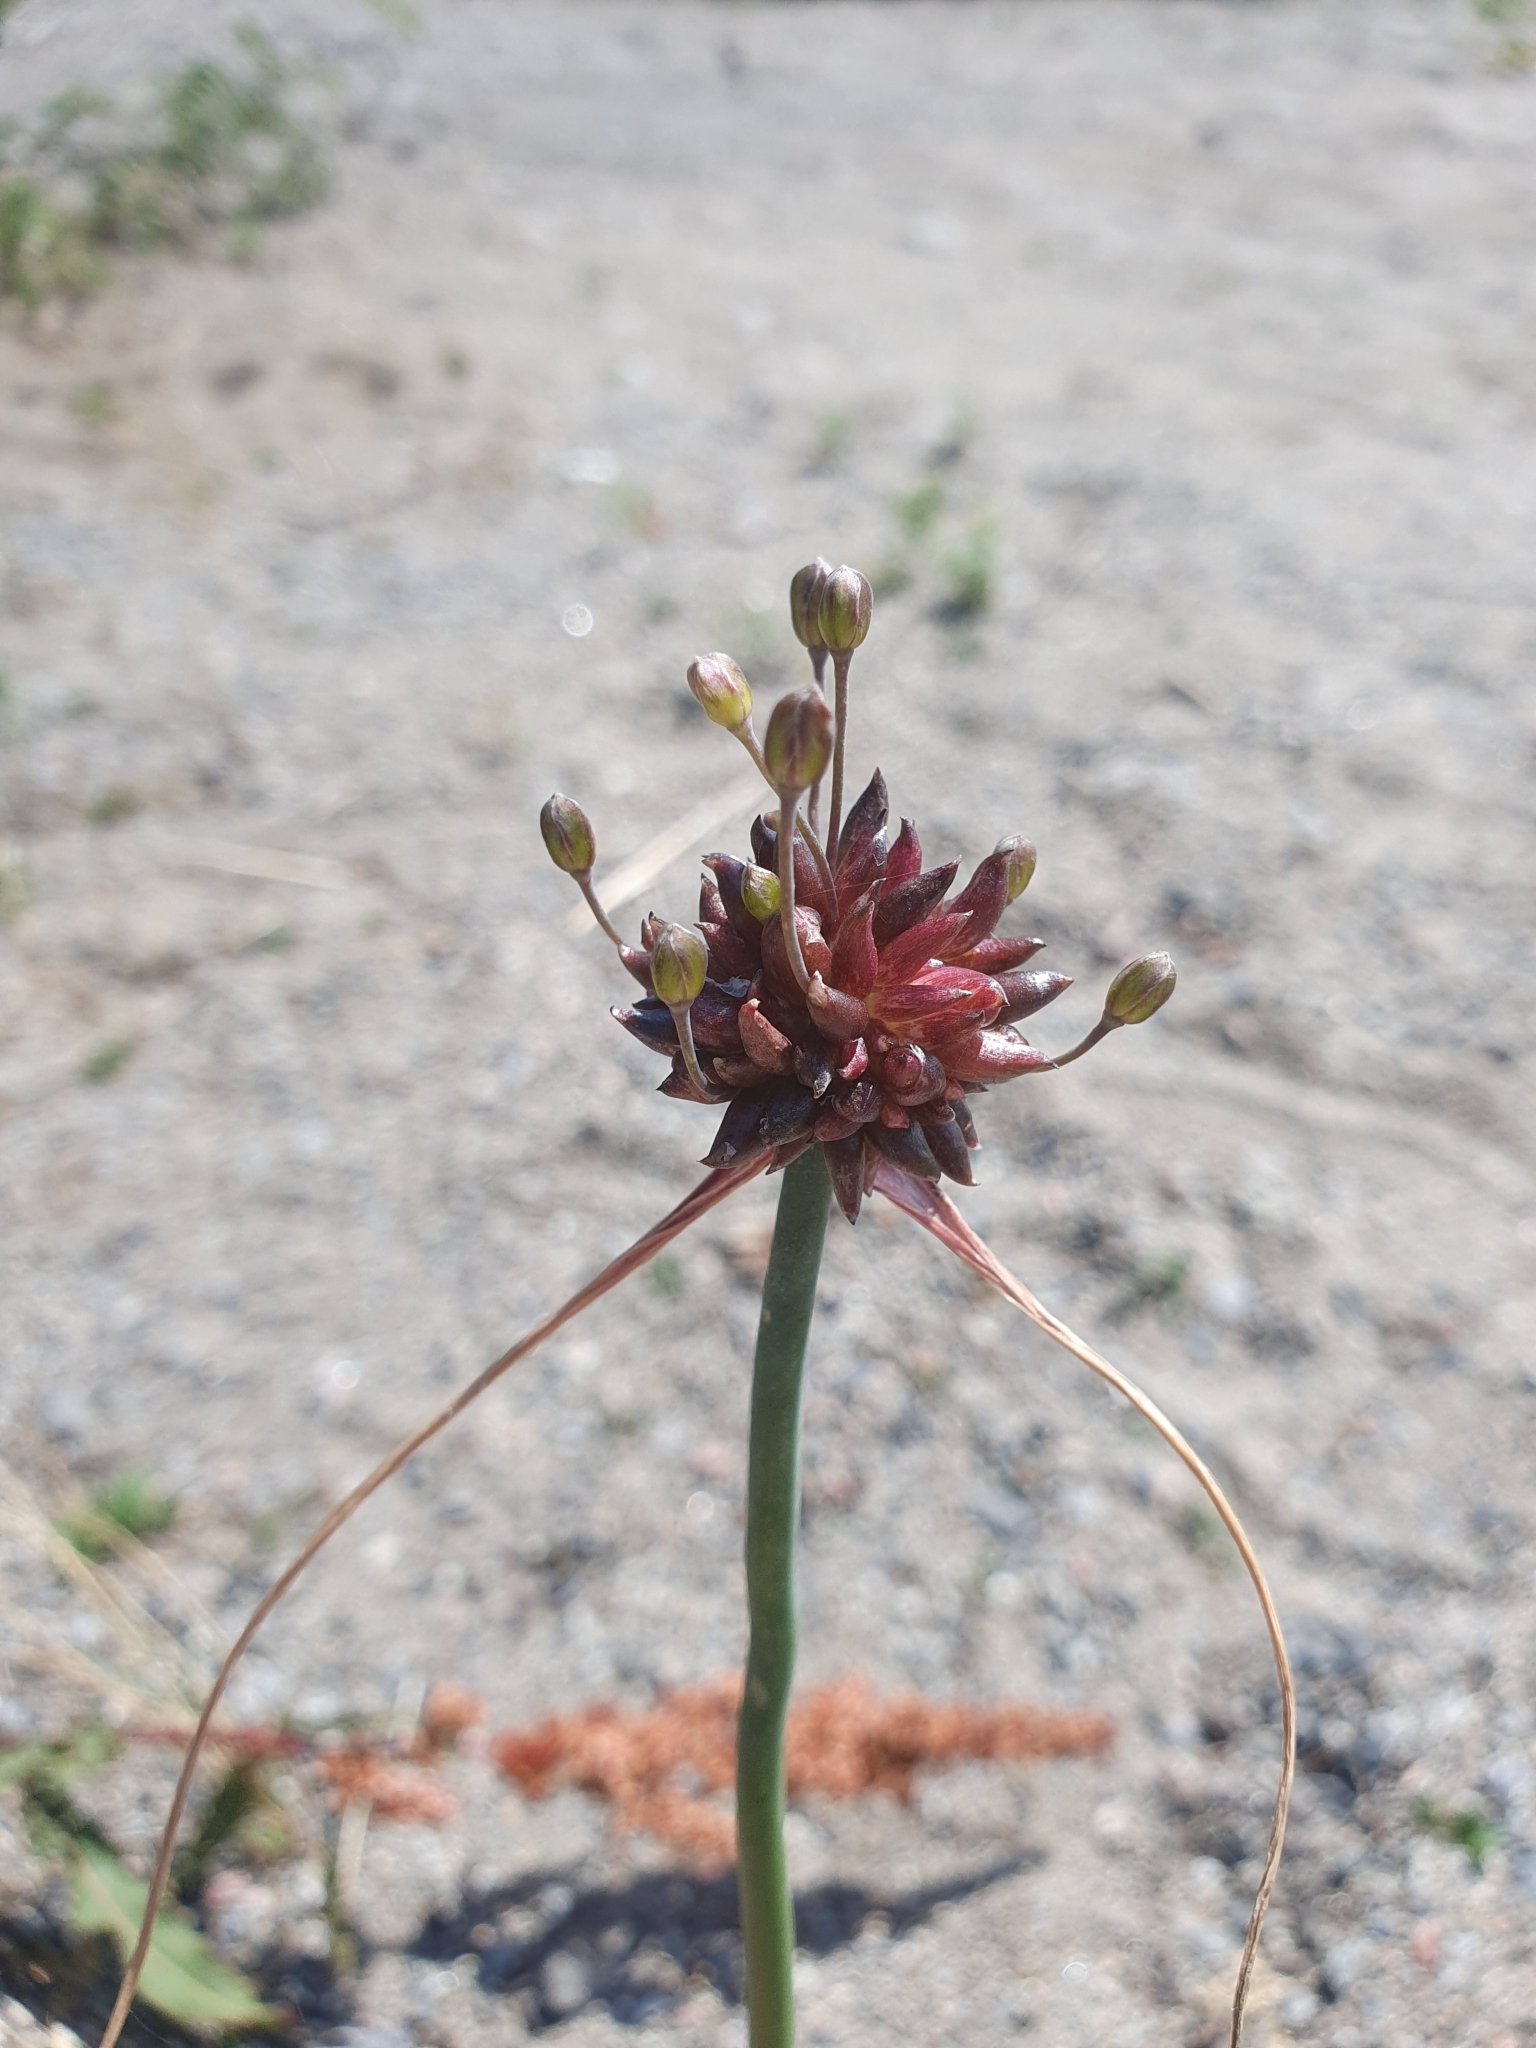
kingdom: Plantae
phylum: Tracheophyta
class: Liliopsida
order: Asparagales
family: Amaryllidaceae
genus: Allium
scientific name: Allium oleraceum
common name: Field garlic
